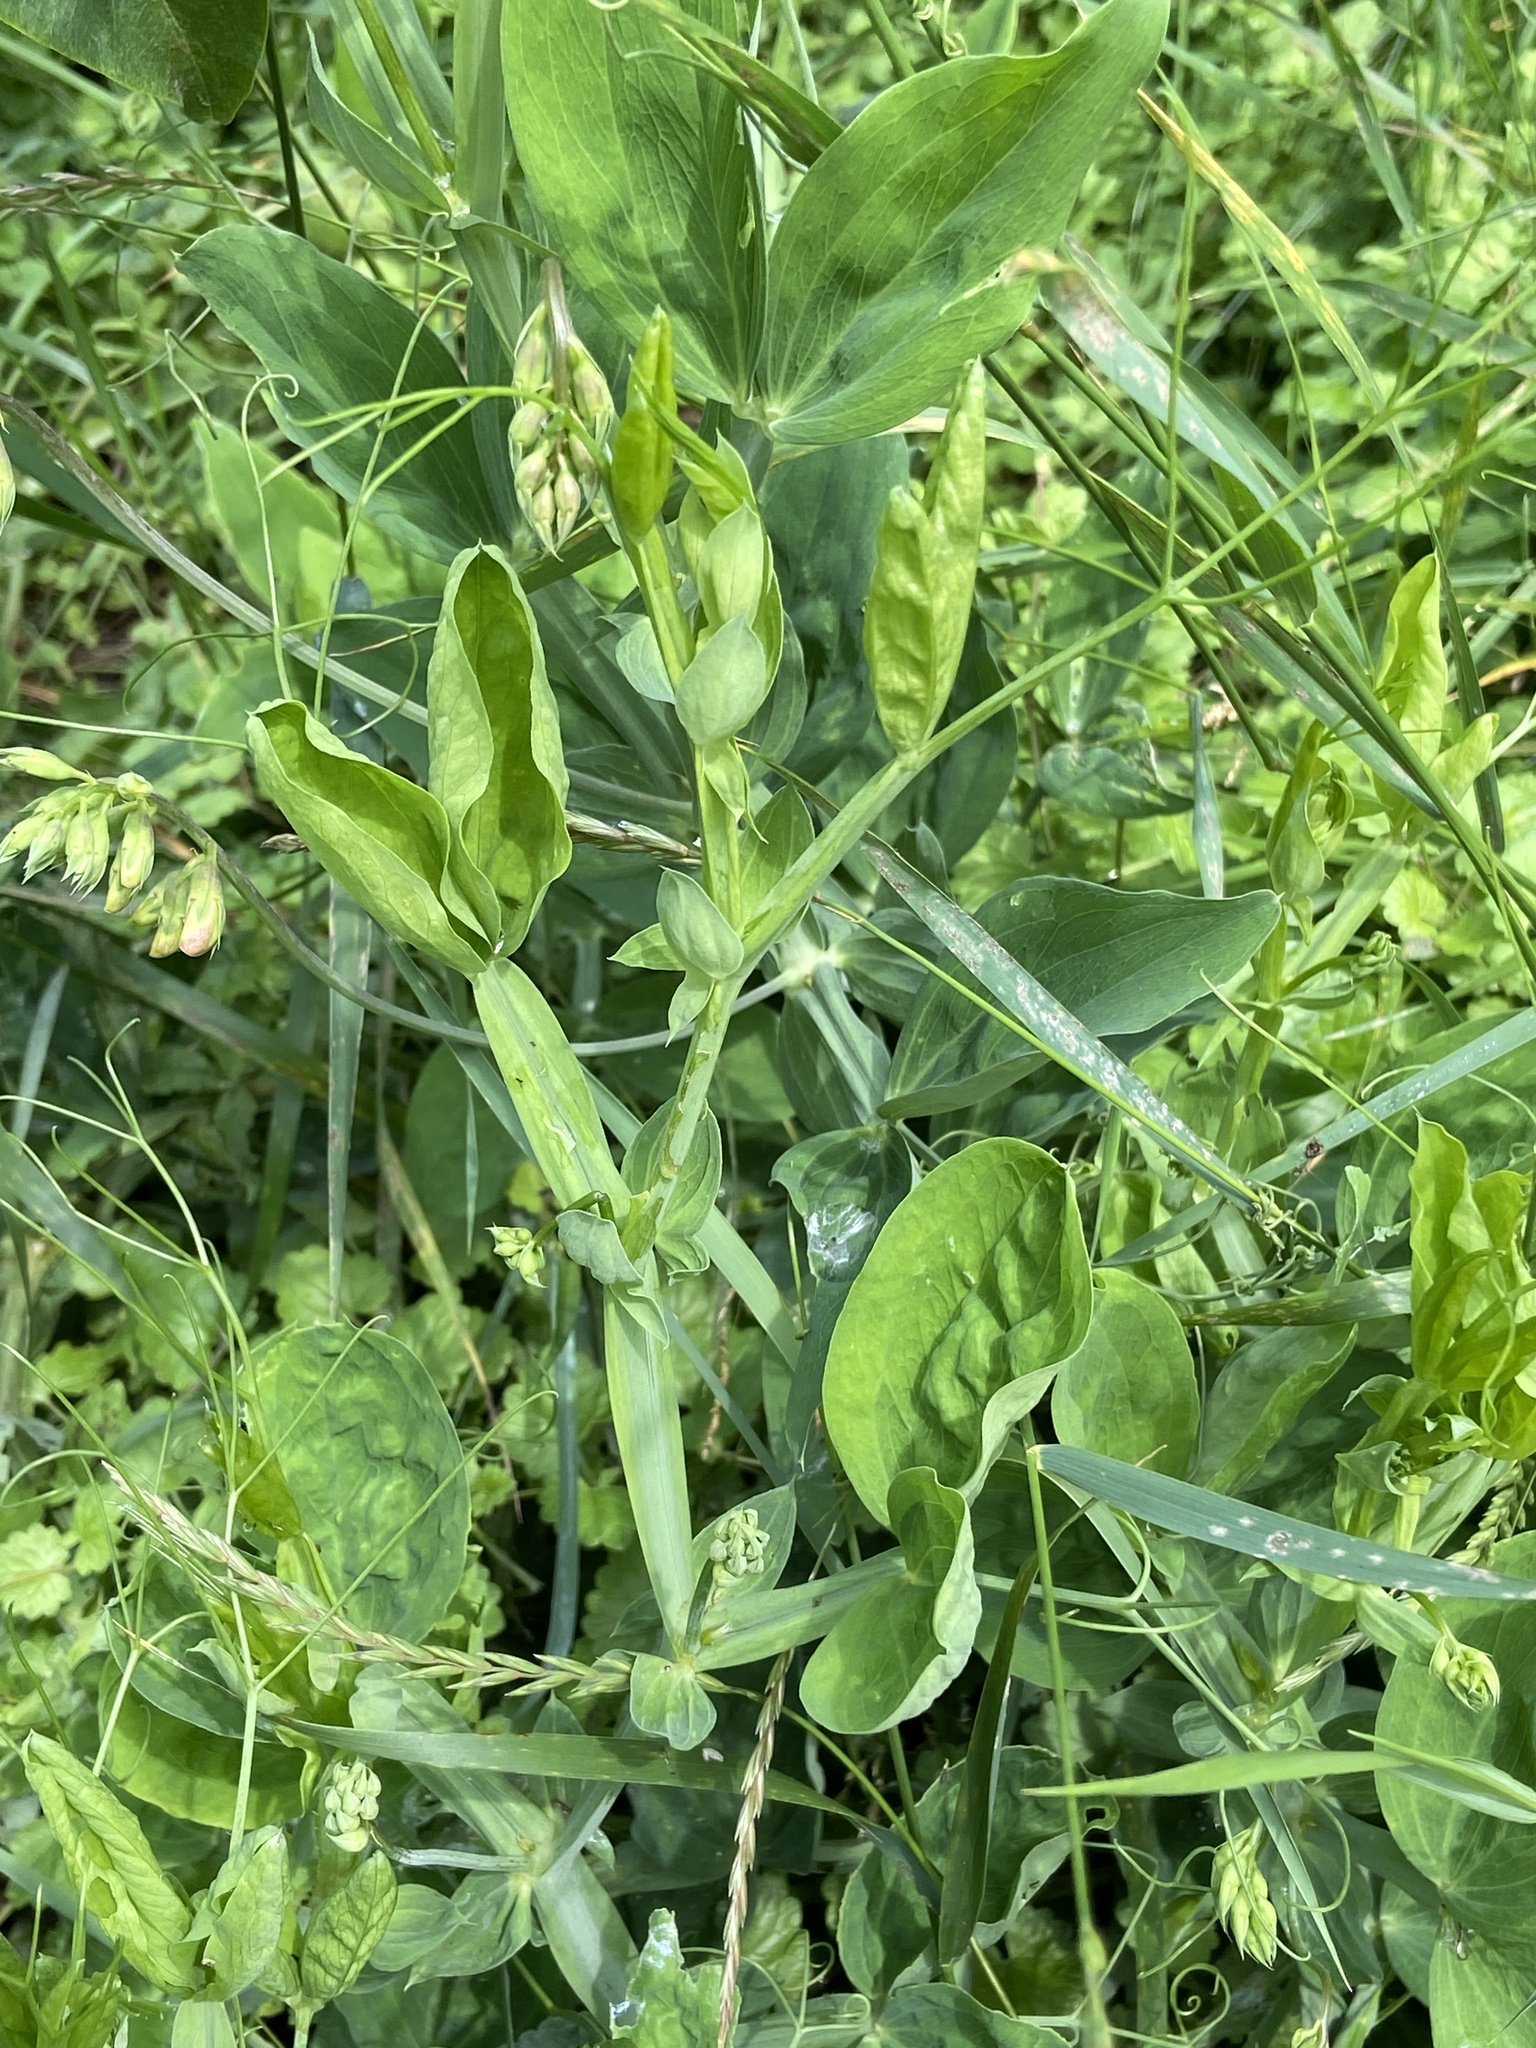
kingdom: Plantae
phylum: Tracheophyta
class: Magnoliopsida
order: Fabales
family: Fabaceae
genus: Lathyrus
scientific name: Lathyrus latifolius
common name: Perennial pea
